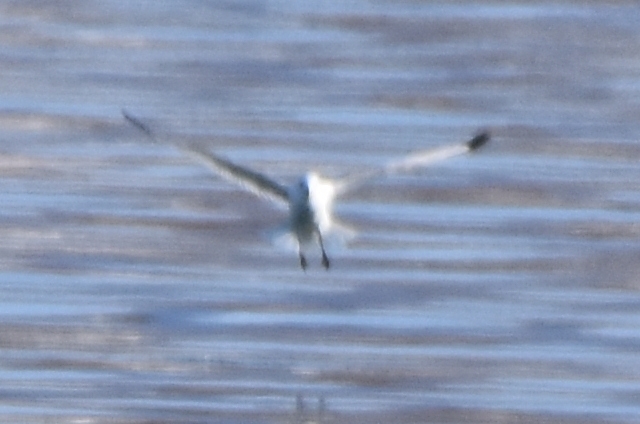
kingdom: Animalia
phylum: Chordata
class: Aves
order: Charadriiformes
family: Laridae
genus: Rissa
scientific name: Rissa tridactyla
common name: Black-legged kittiwake
